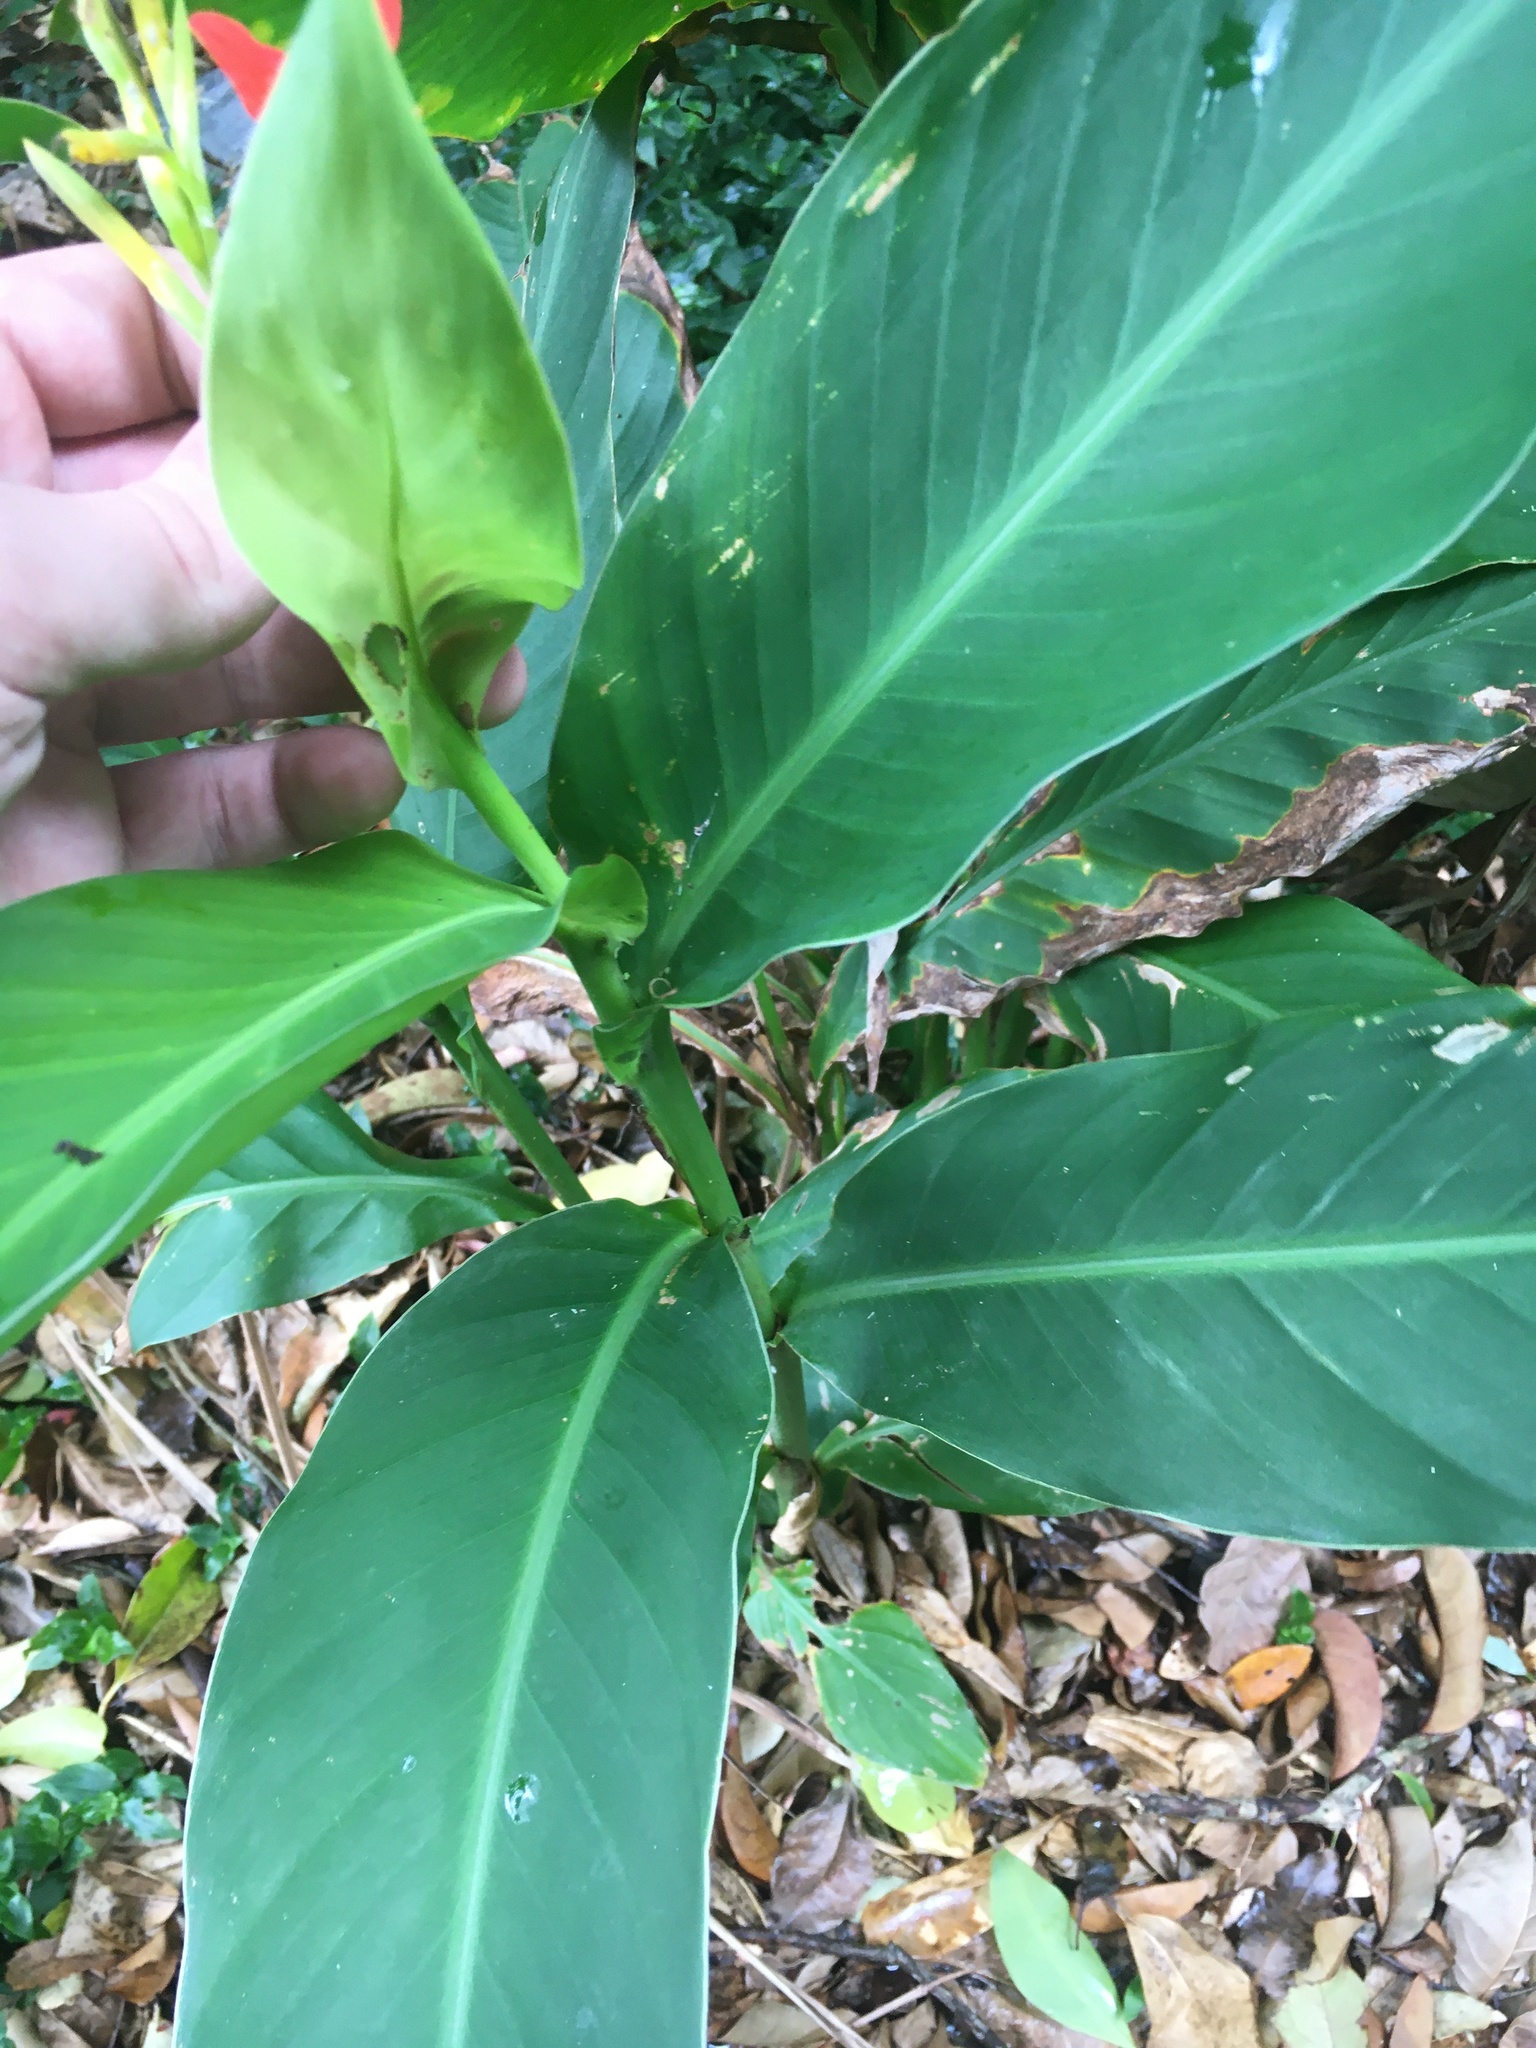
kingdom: Plantae
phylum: Tracheophyta
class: Liliopsida
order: Zingiberales
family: Cannaceae
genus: Canna
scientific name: Canna indica
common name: Indian shot
